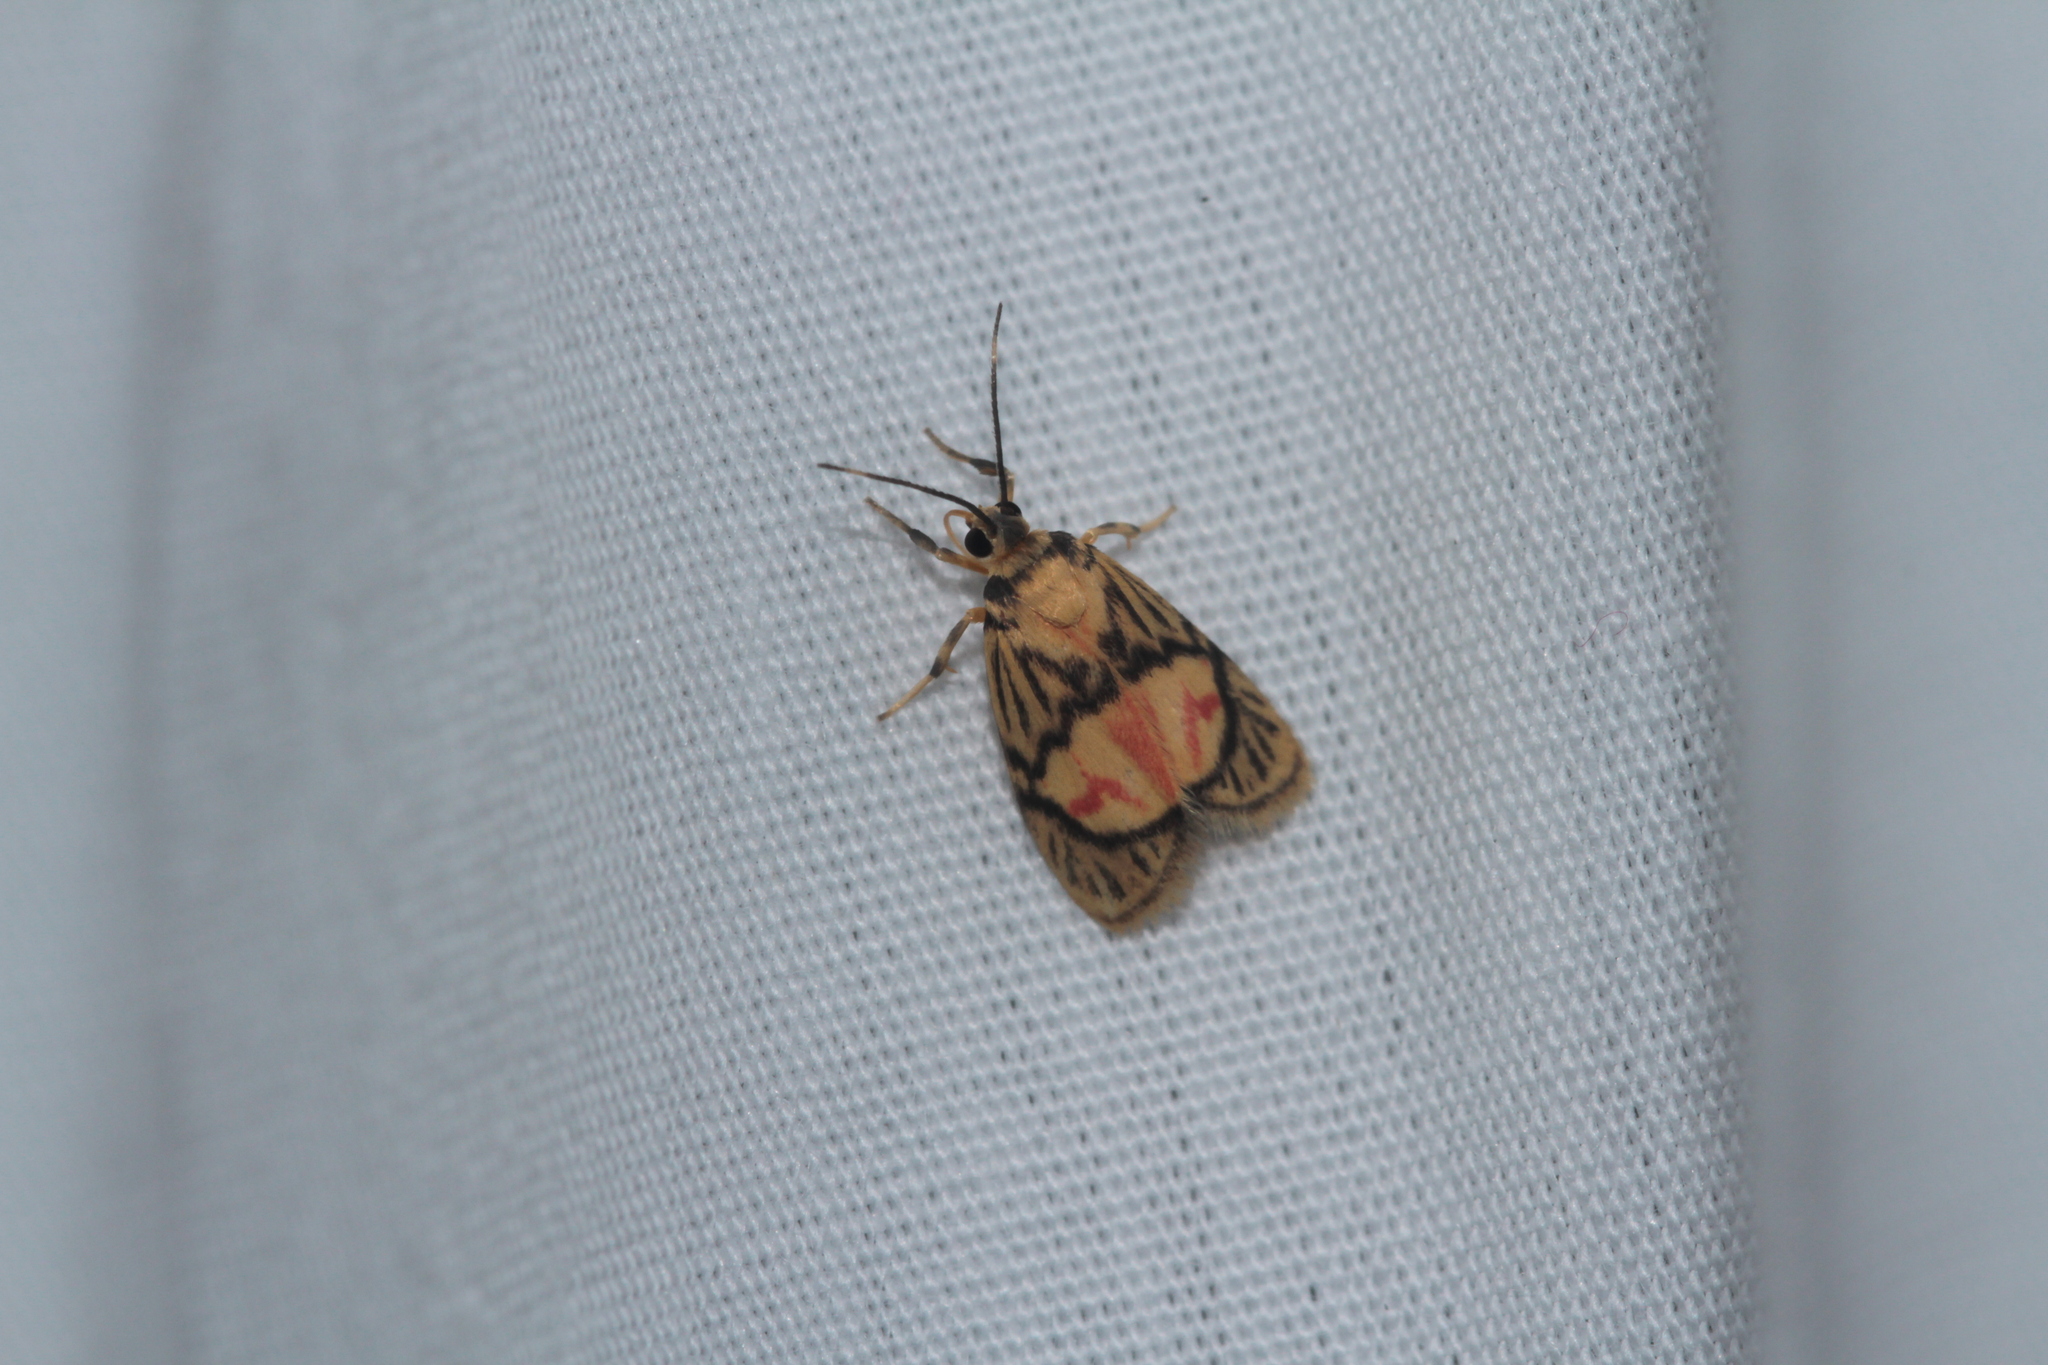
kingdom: Animalia
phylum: Arthropoda
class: Insecta
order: Lepidoptera
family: Erebidae
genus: Prepiella
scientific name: Prepiella strigivenia
